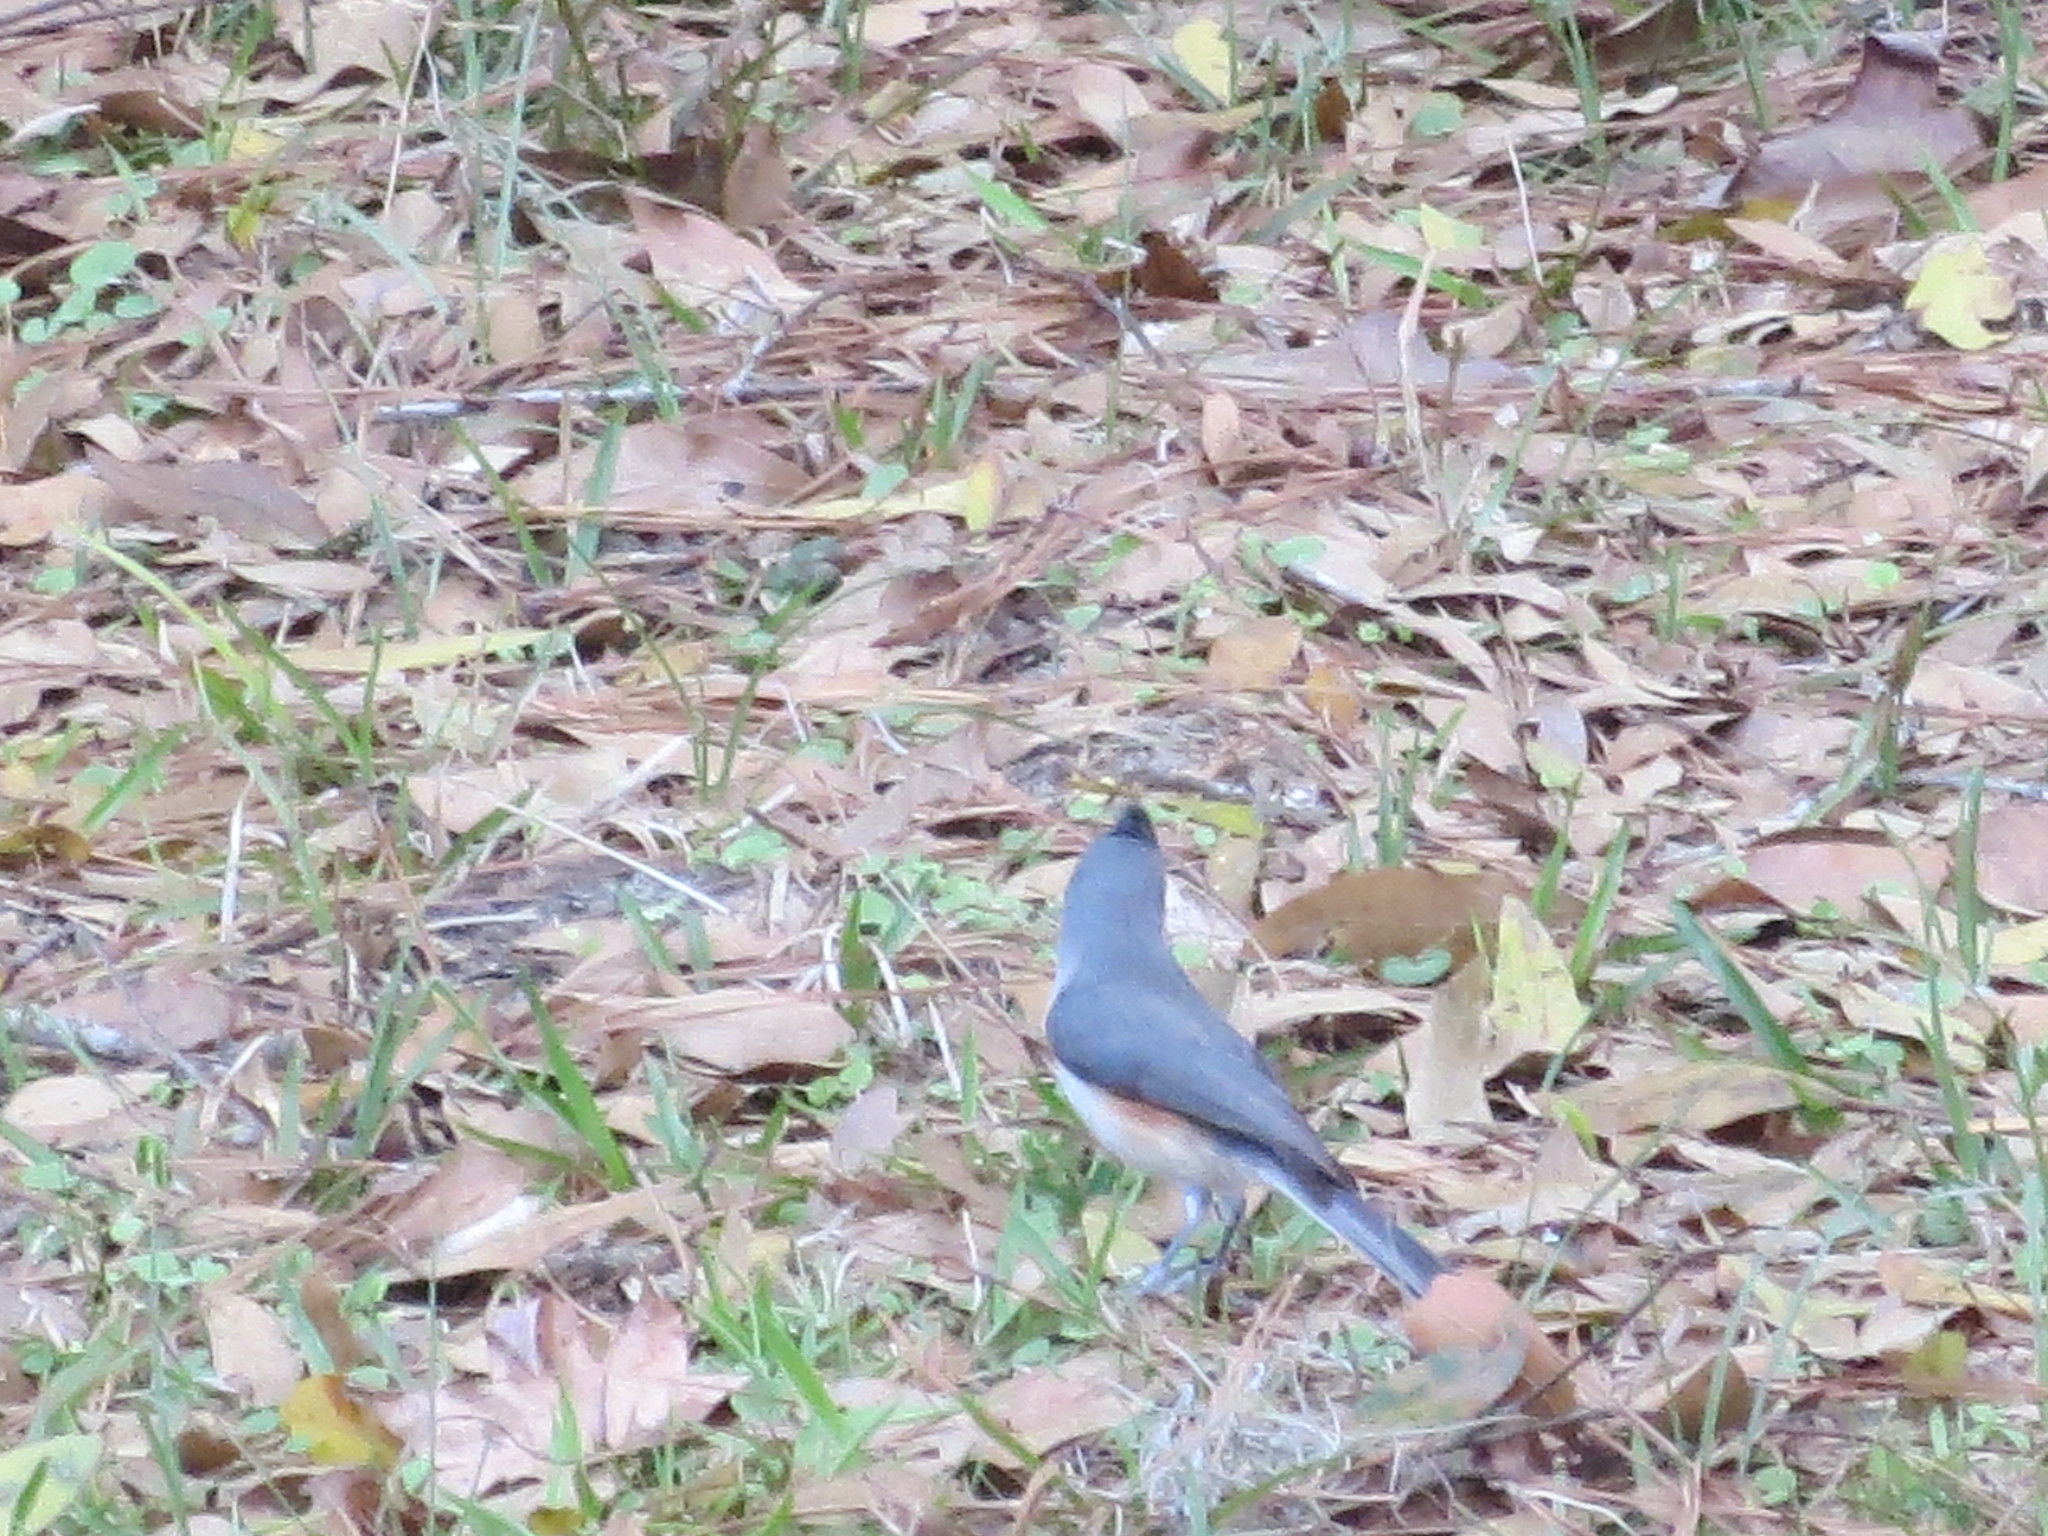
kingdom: Animalia
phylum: Chordata
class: Aves
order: Passeriformes
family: Paridae
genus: Baeolophus
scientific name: Baeolophus bicolor
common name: Tufted titmouse
